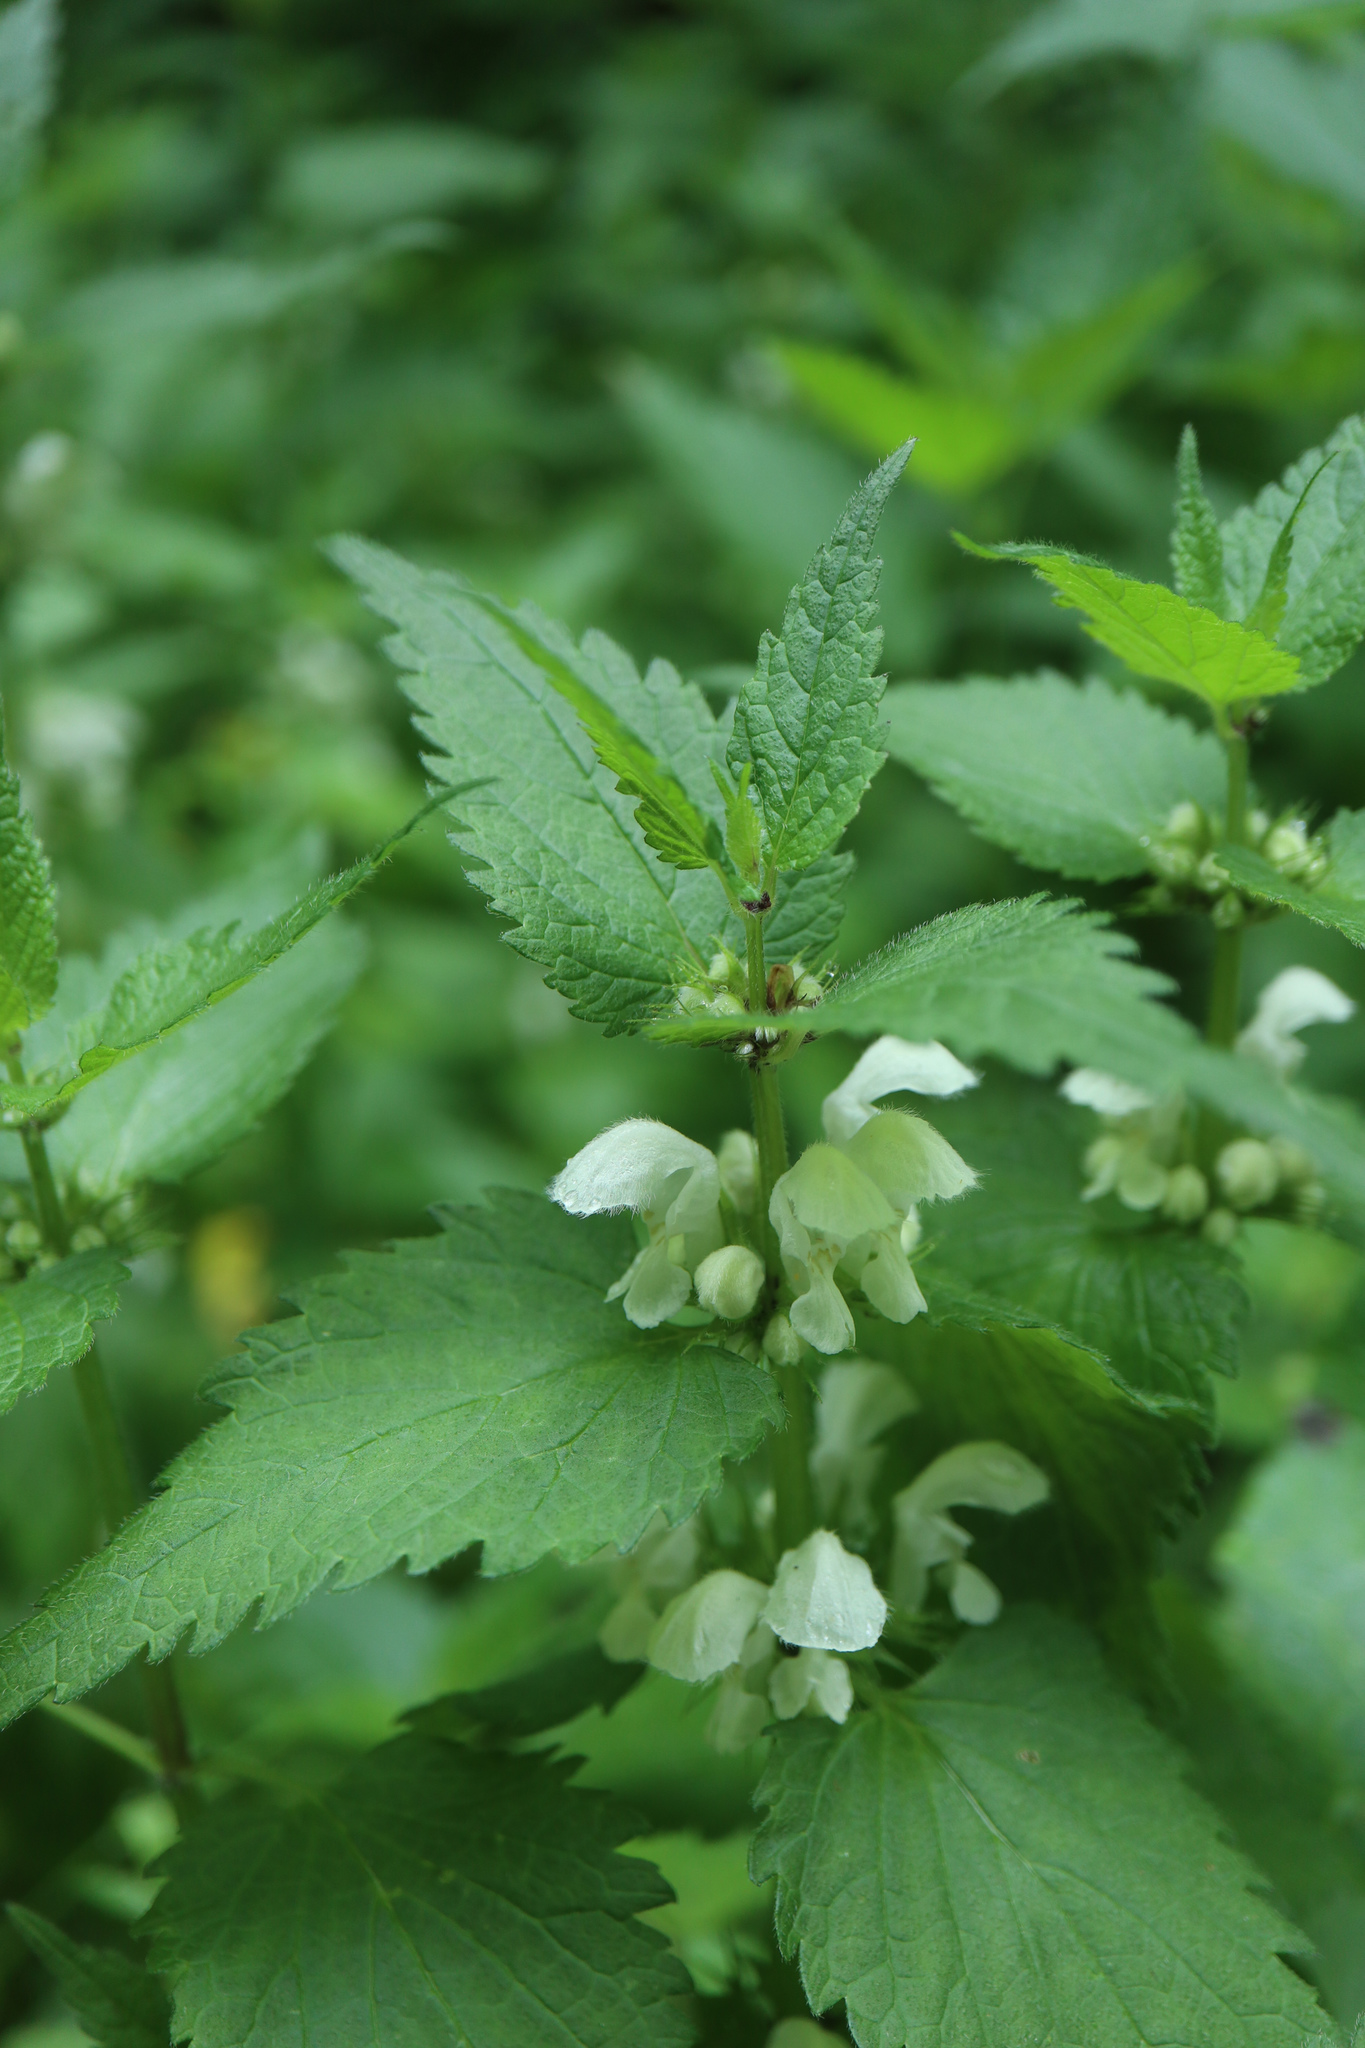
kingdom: Plantae
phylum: Tracheophyta
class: Magnoliopsida
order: Lamiales
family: Lamiaceae
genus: Lamium
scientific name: Lamium album
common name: White dead-nettle
